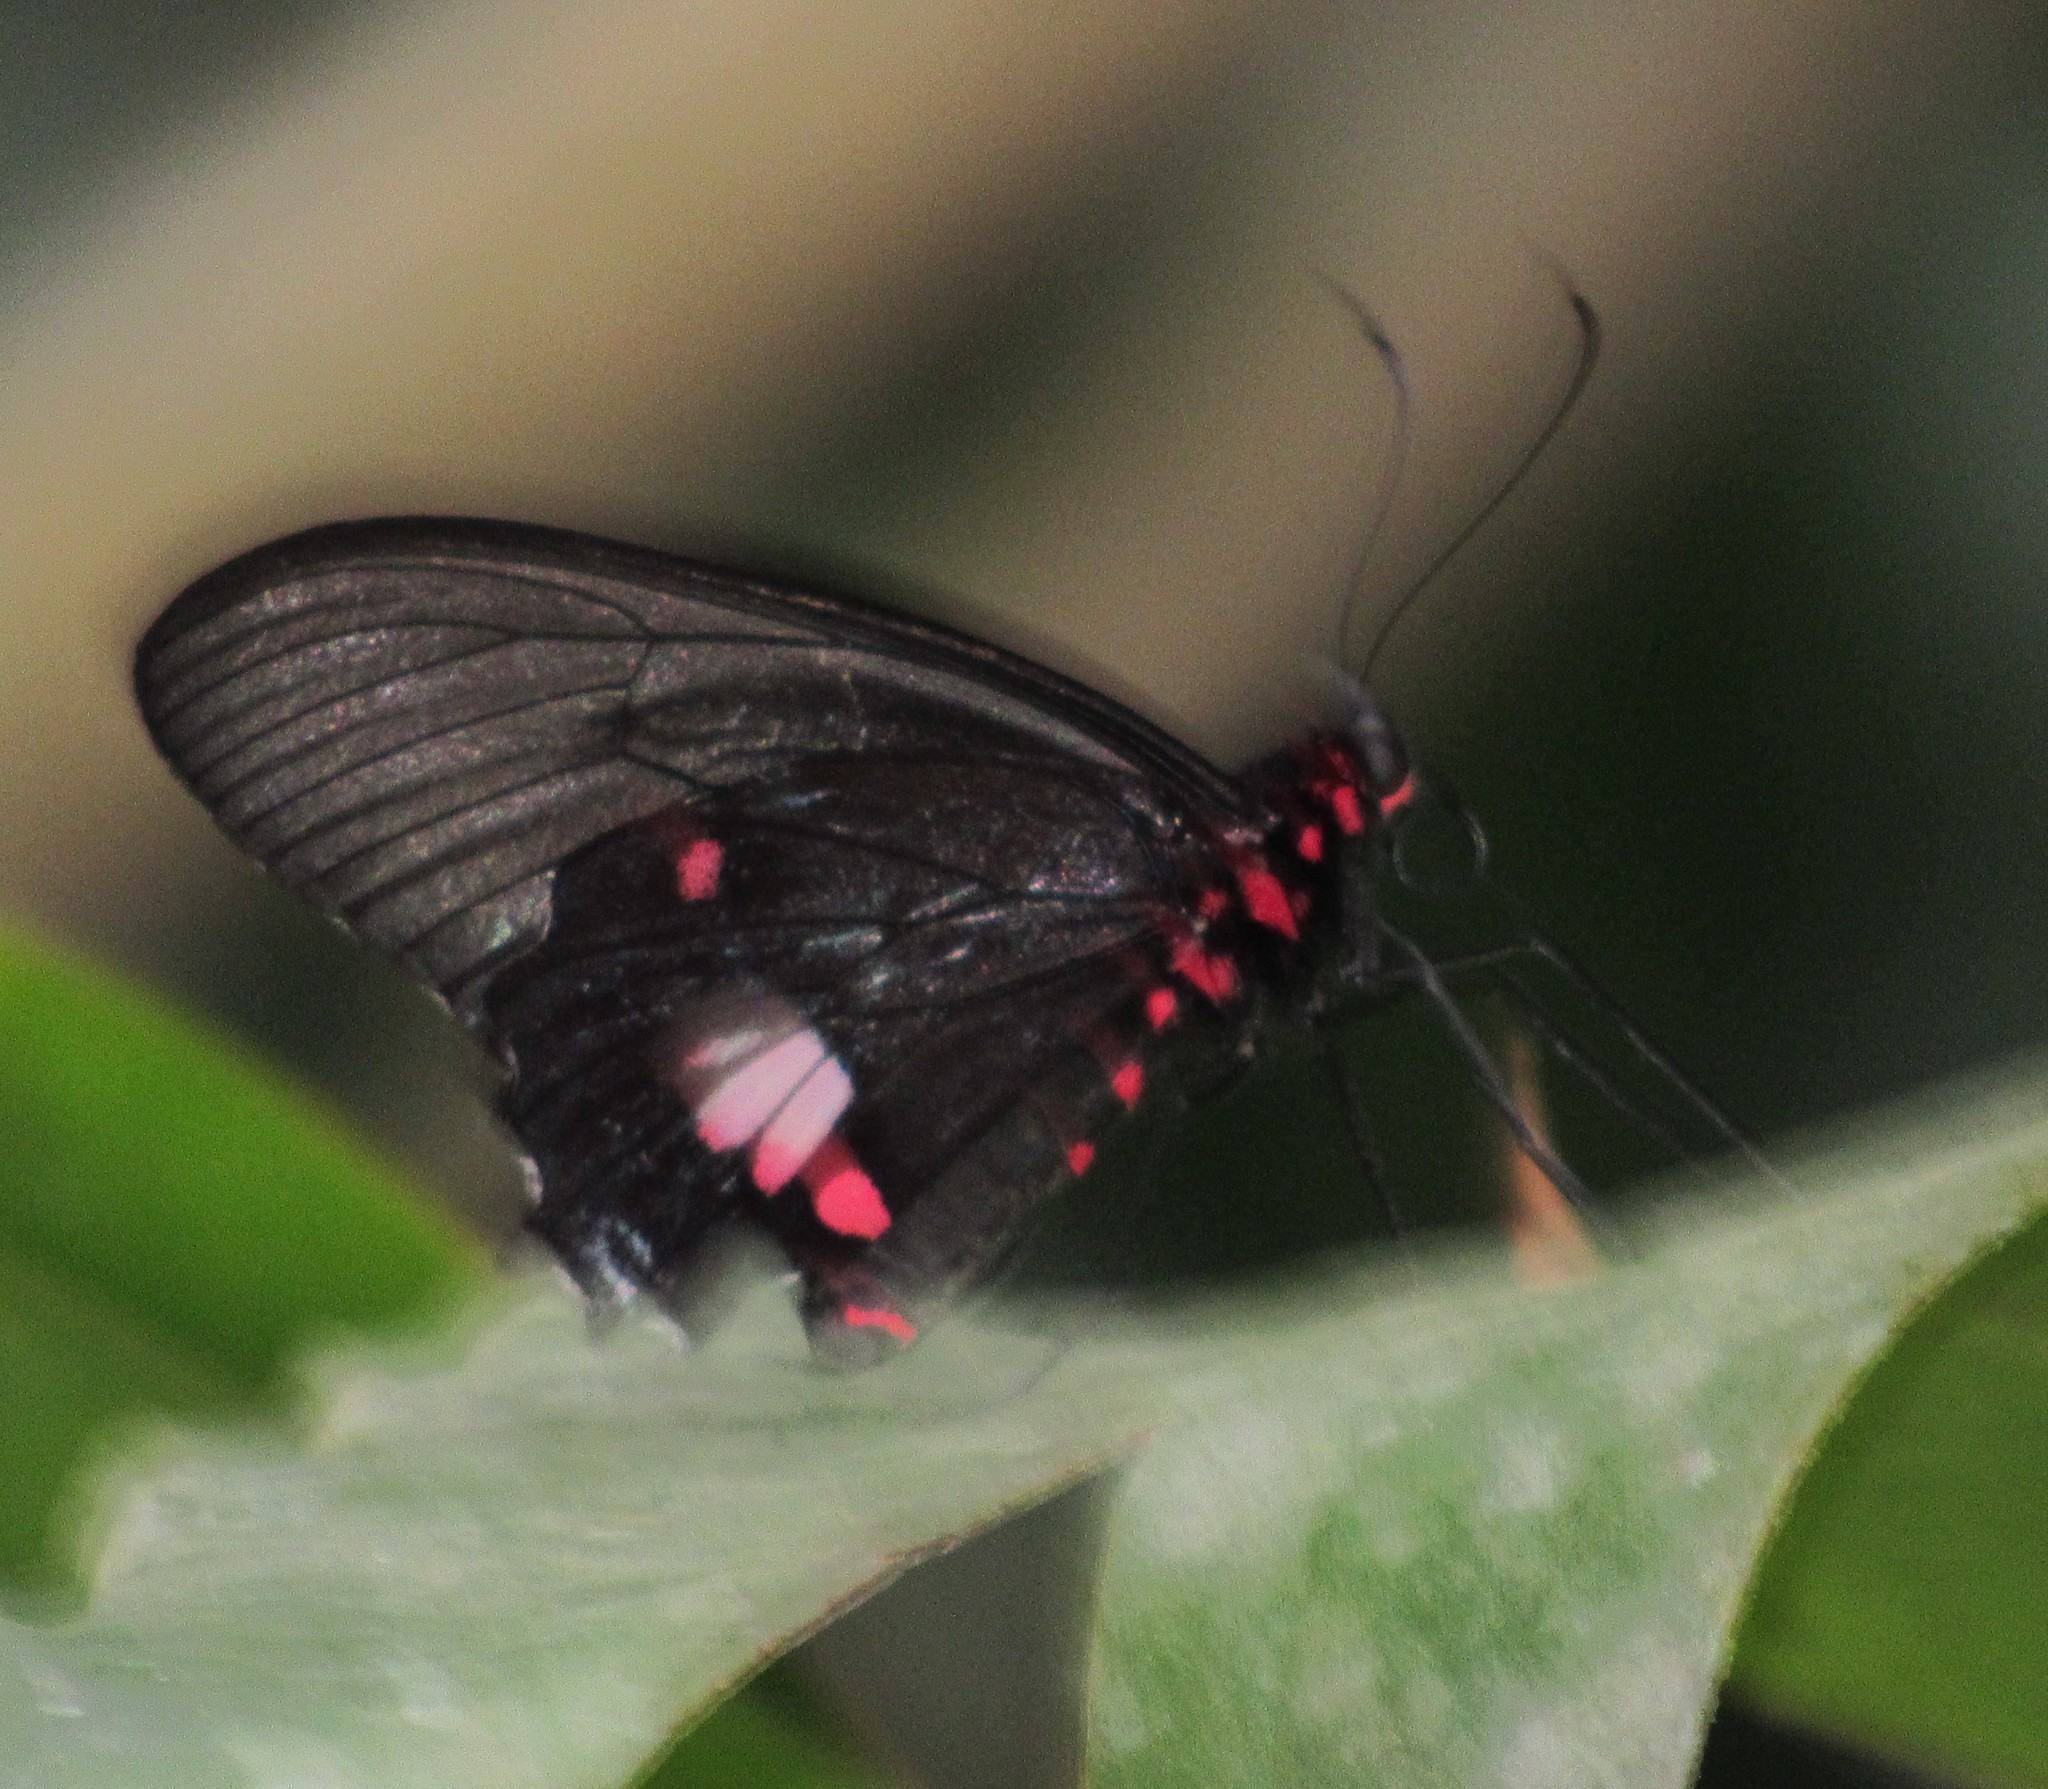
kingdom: Animalia
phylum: Arthropoda
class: Insecta
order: Lepidoptera
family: Papilionidae
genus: Parides
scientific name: Parides anchises
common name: Cattle heart
